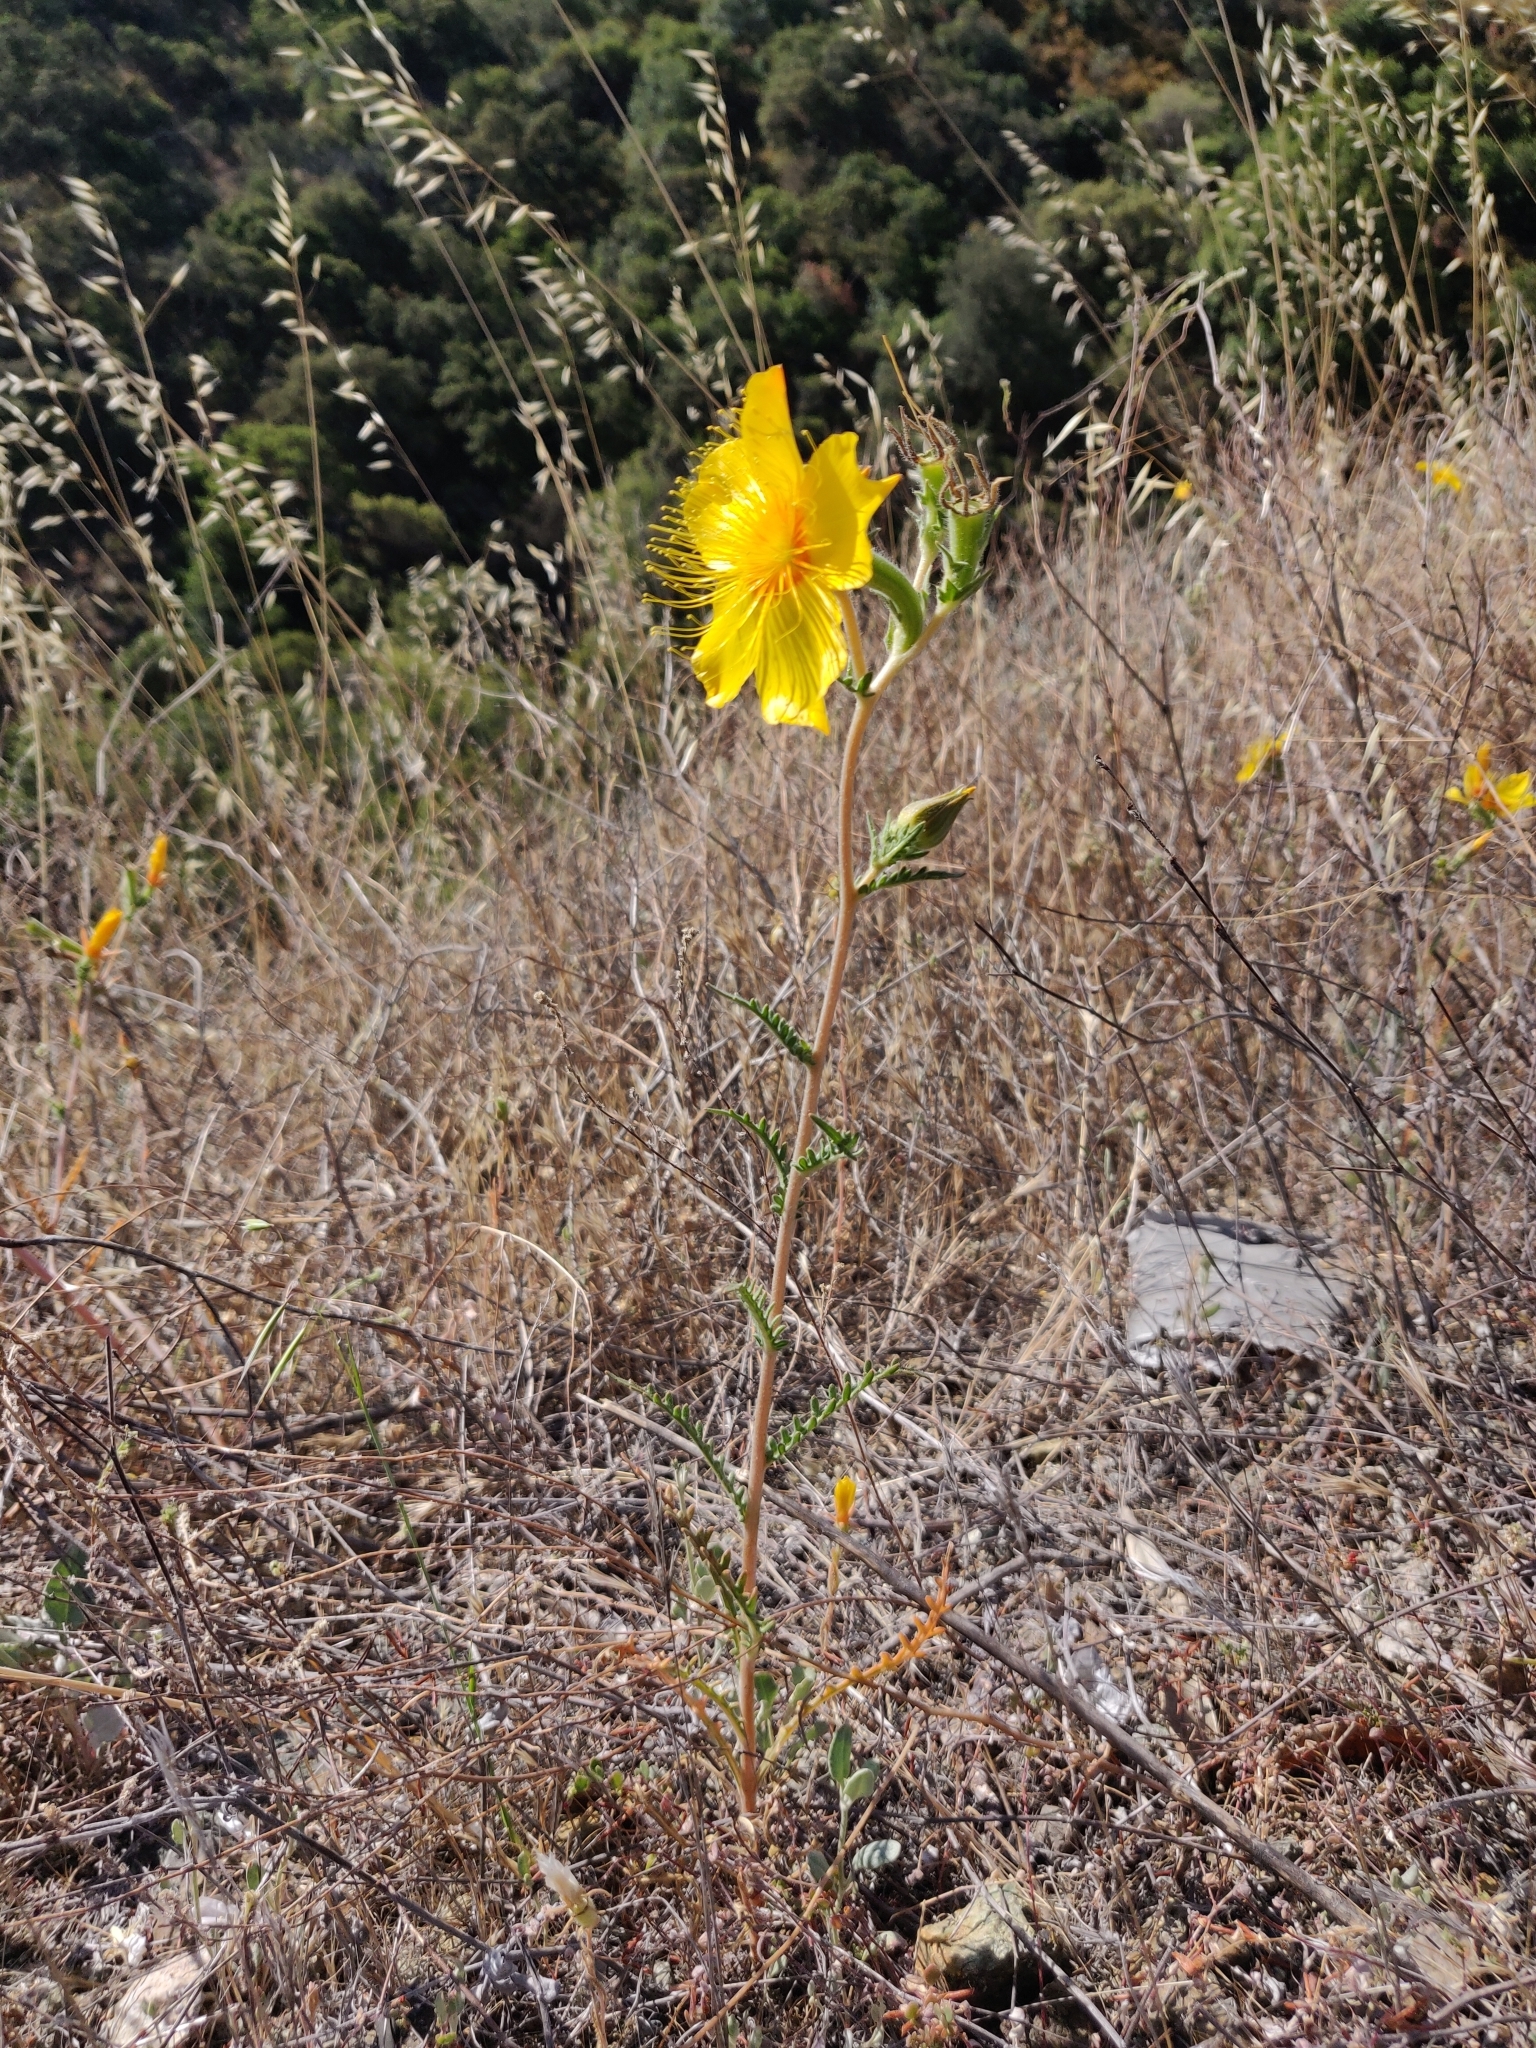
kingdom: Plantae
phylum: Tracheophyta
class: Magnoliopsida
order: Cornales
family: Loasaceae
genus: Mentzelia
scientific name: Mentzelia lindleyi
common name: Golden bartonia
